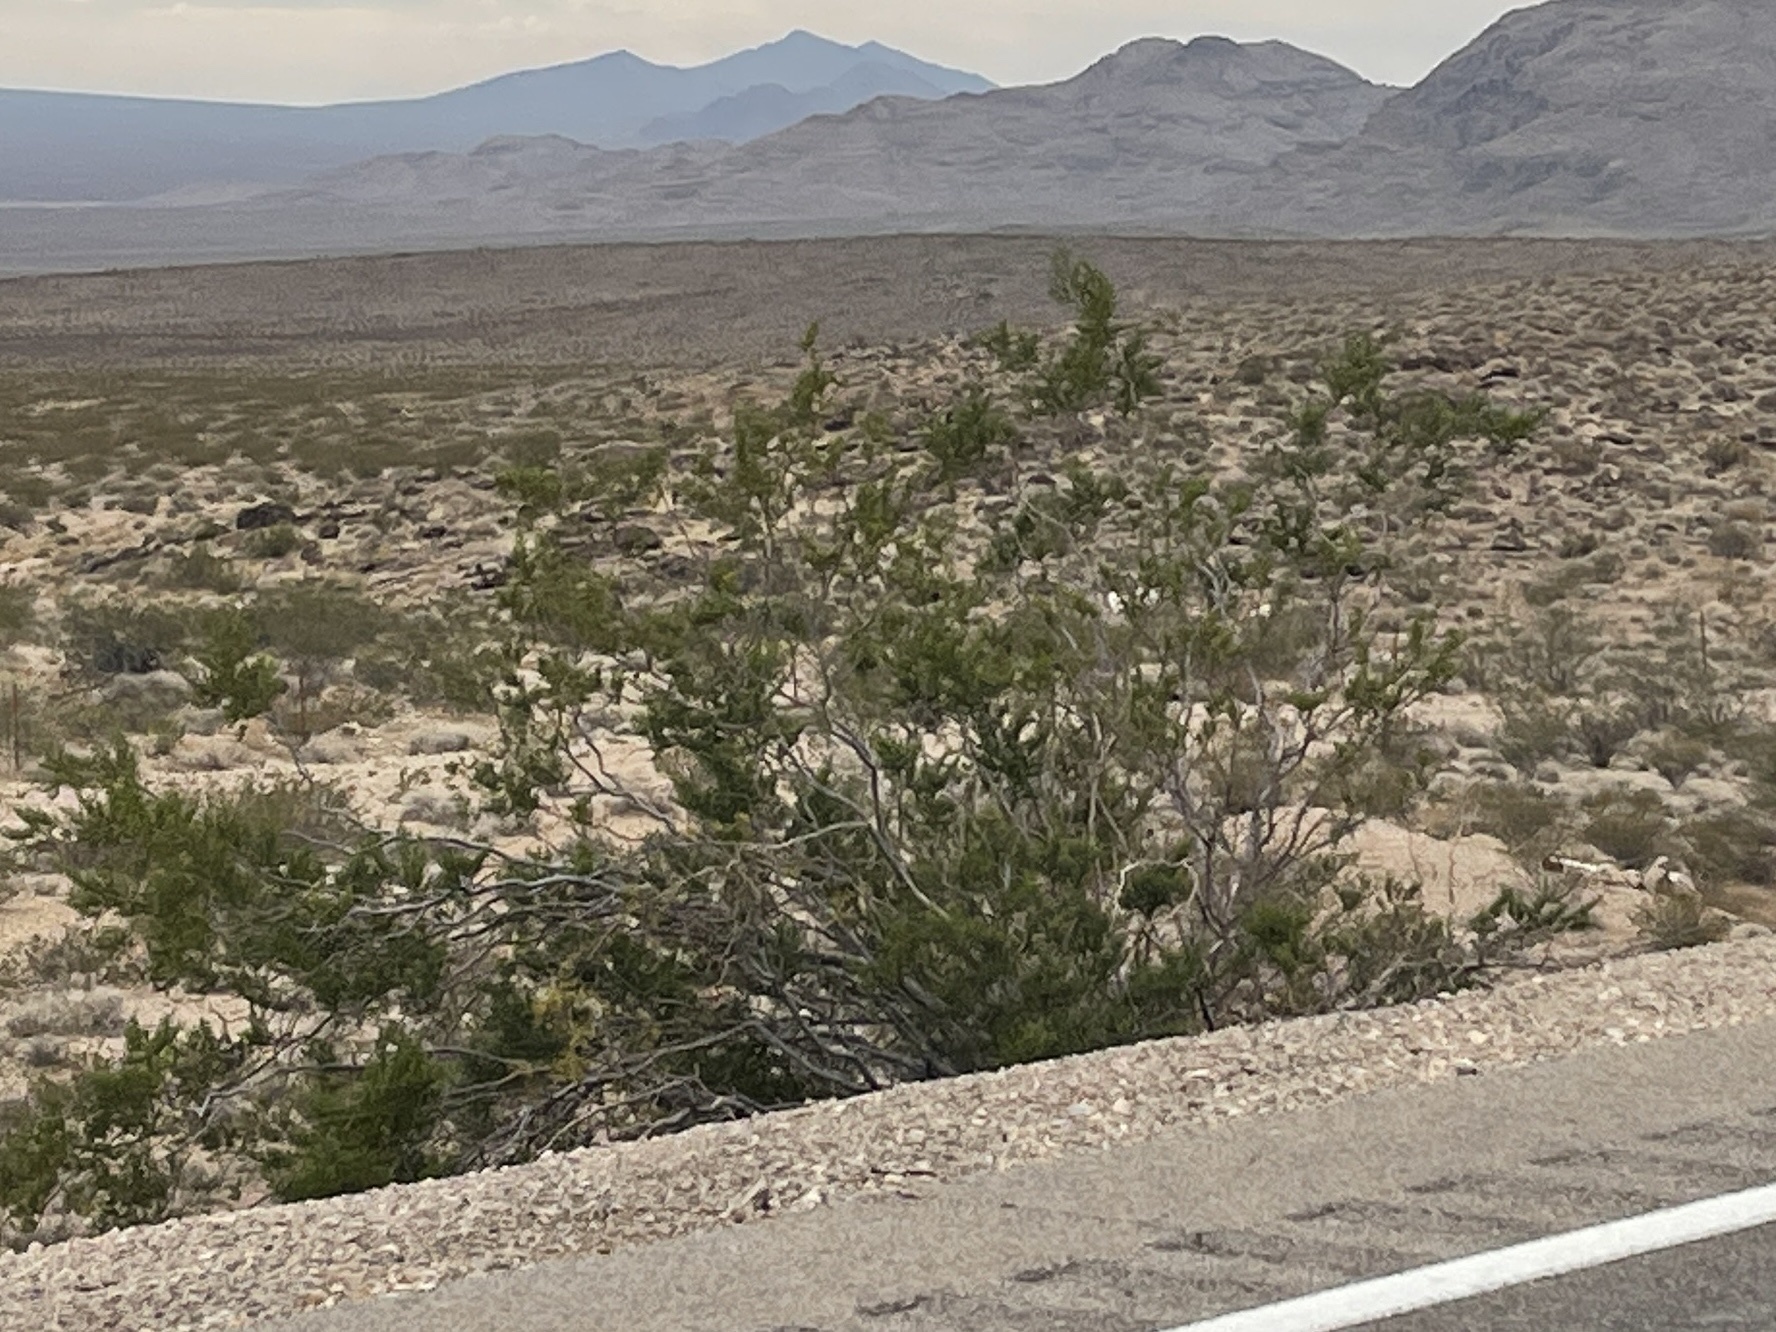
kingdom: Plantae
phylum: Tracheophyta
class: Magnoliopsida
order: Zygophyllales
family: Zygophyllaceae
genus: Larrea
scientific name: Larrea tridentata
